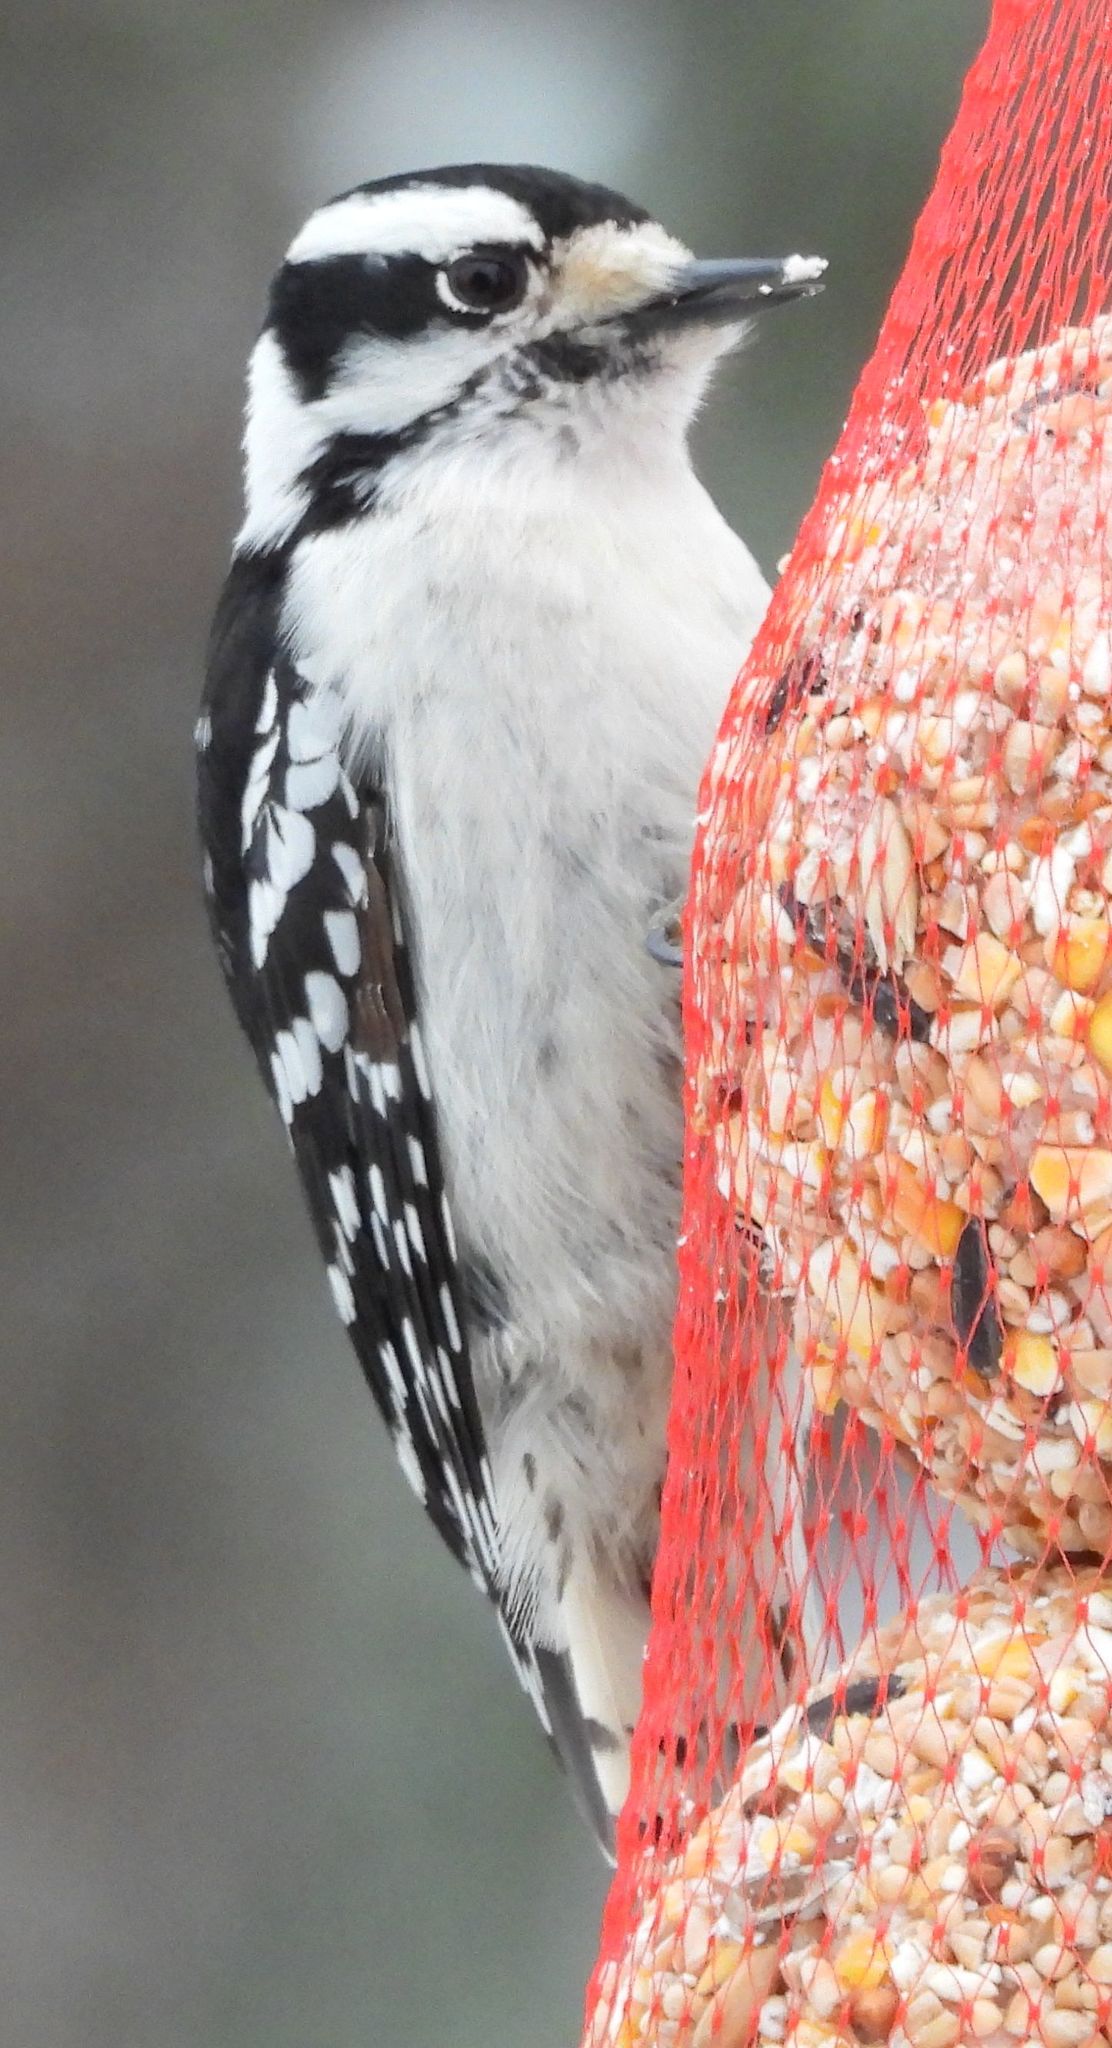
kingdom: Animalia
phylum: Chordata
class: Aves
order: Piciformes
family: Picidae
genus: Dryobates
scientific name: Dryobates pubescens
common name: Downy woodpecker
